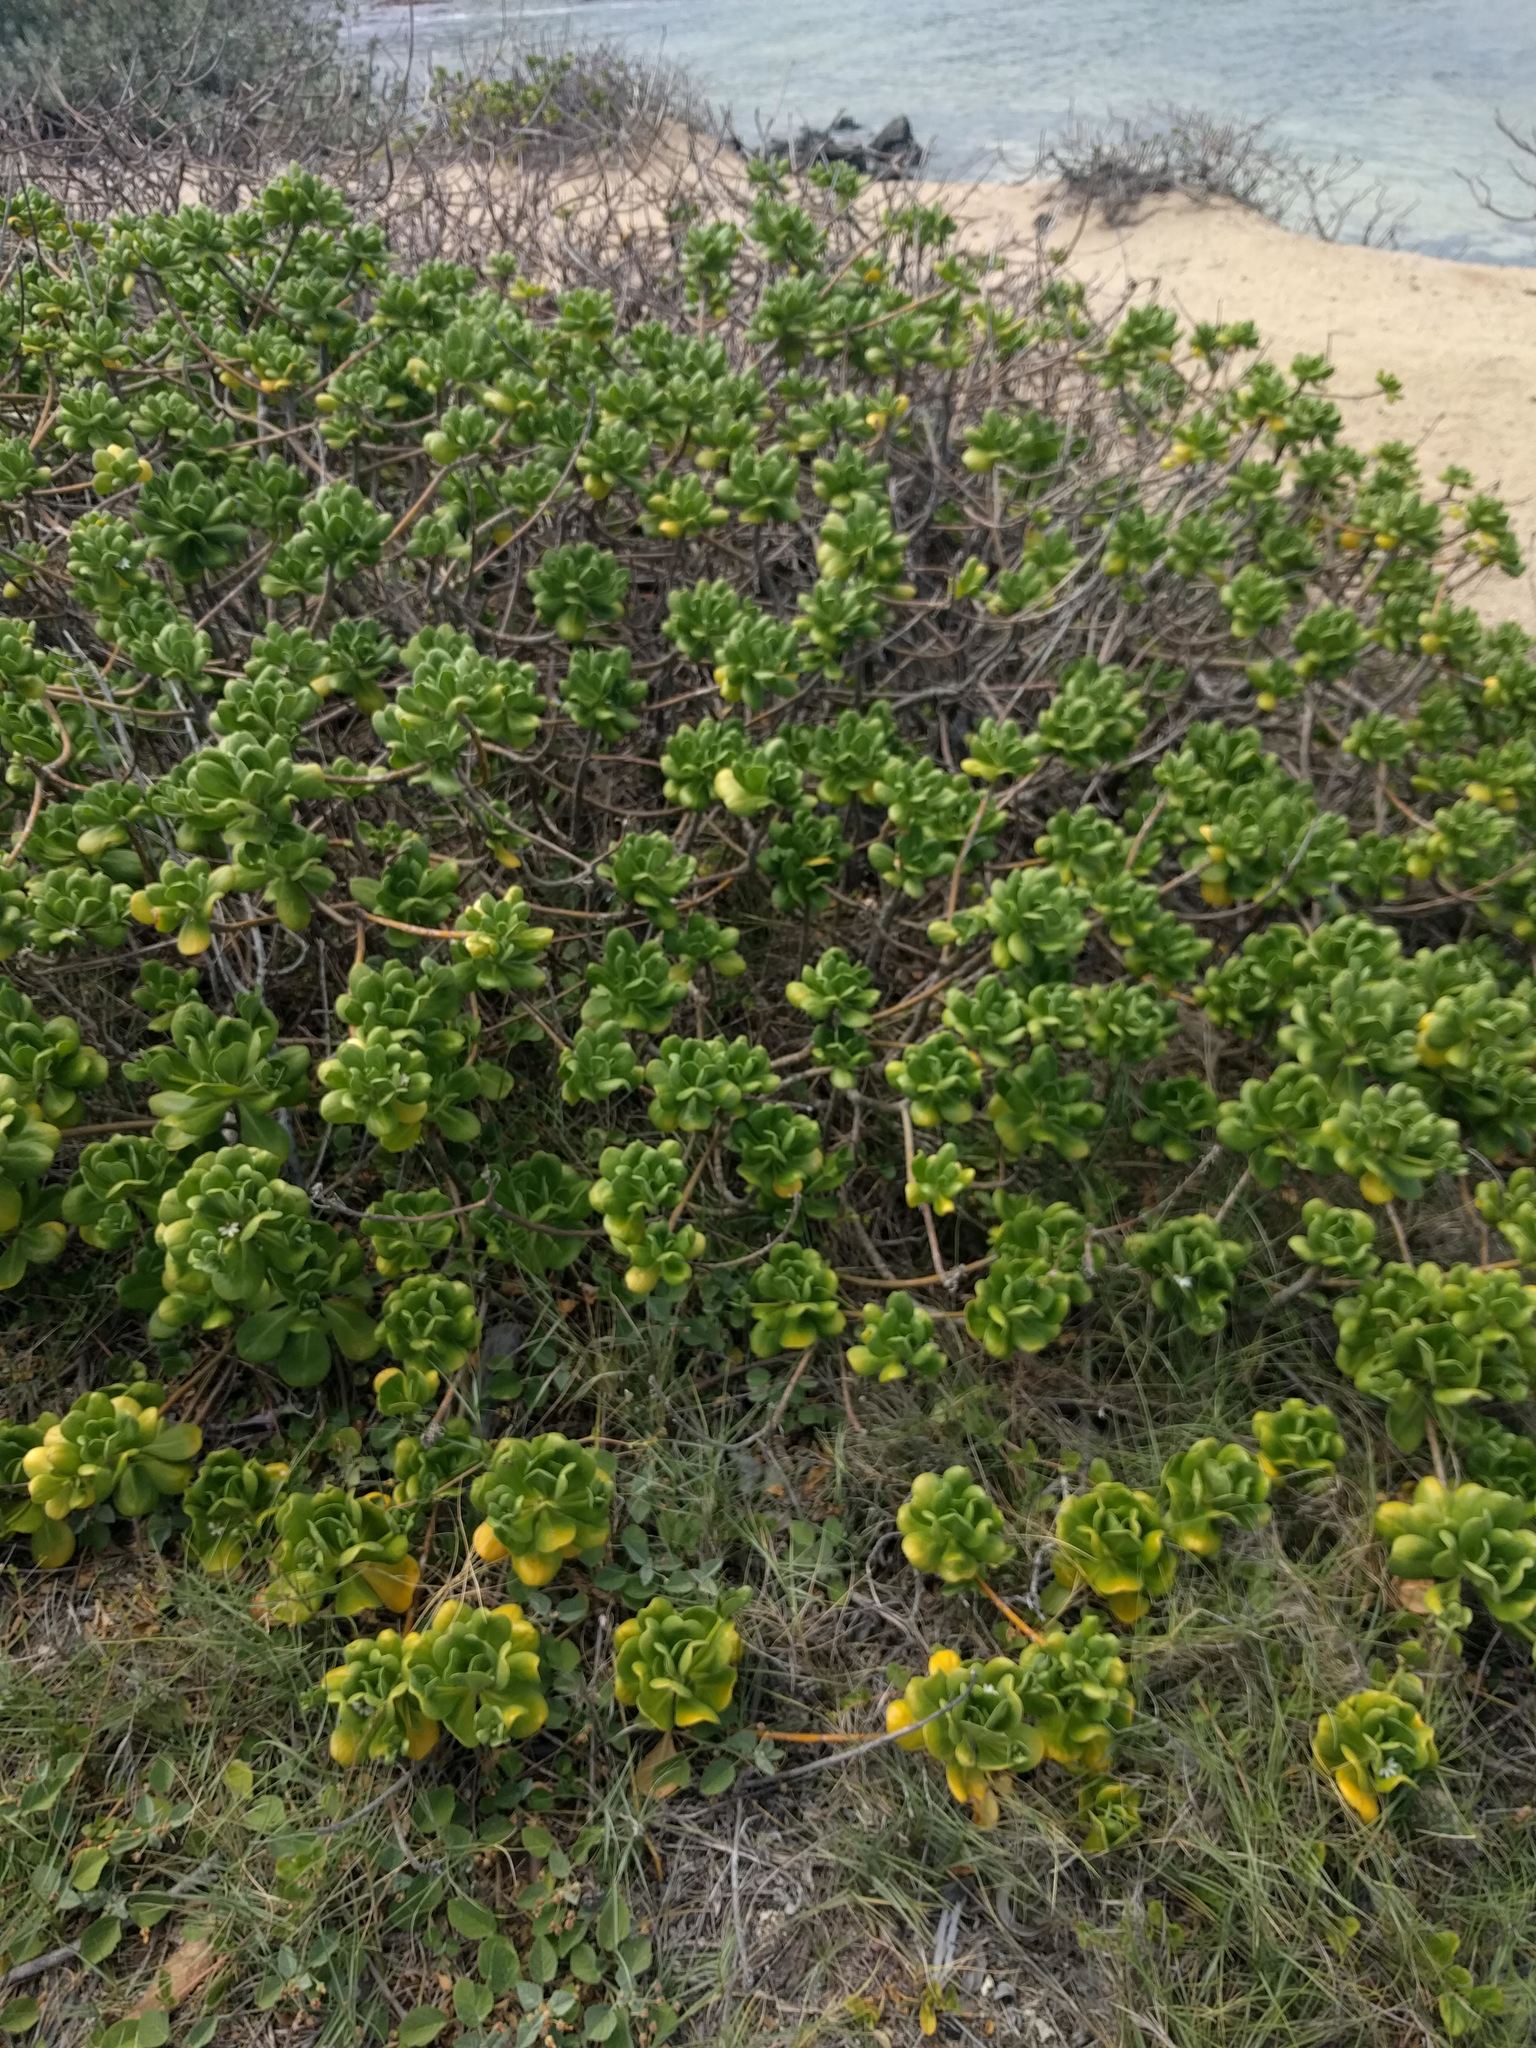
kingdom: Plantae
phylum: Tracheophyta
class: Magnoliopsida
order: Asterales
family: Goodeniaceae
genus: Scaevola
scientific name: Scaevola taccada
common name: Sea lettucetree
